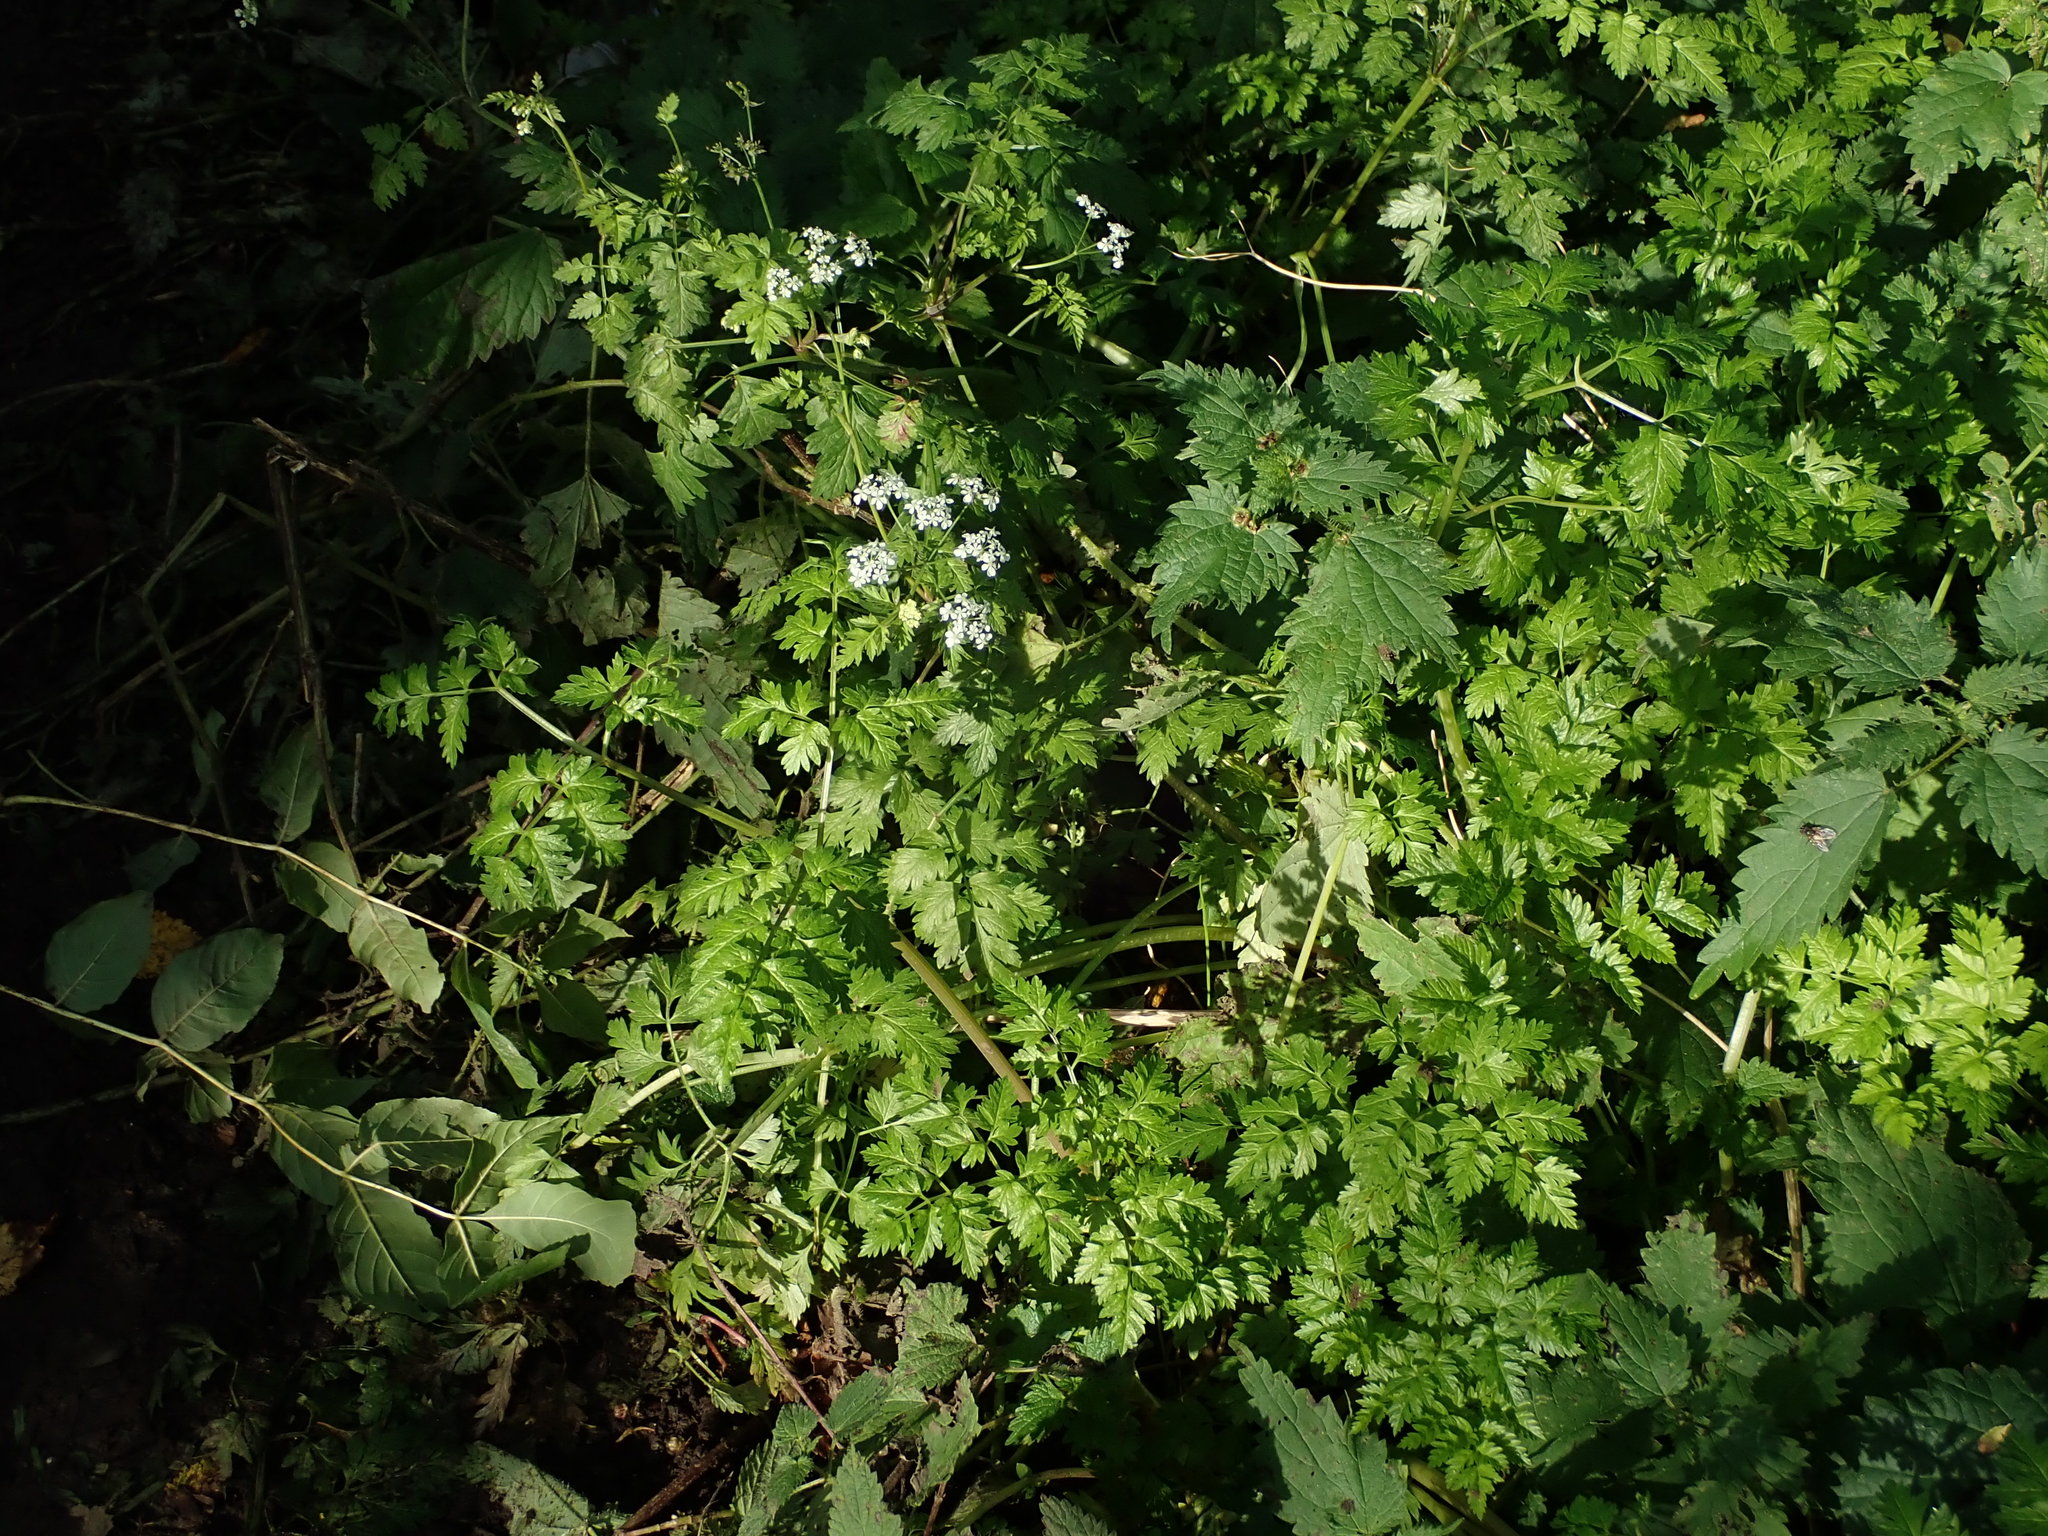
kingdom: Plantae
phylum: Tracheophyta
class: Magnoliopsida
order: Apiales
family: Apiaceae
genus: Anthriscus
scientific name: Anthriscus sylvestris
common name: Cow parsley
